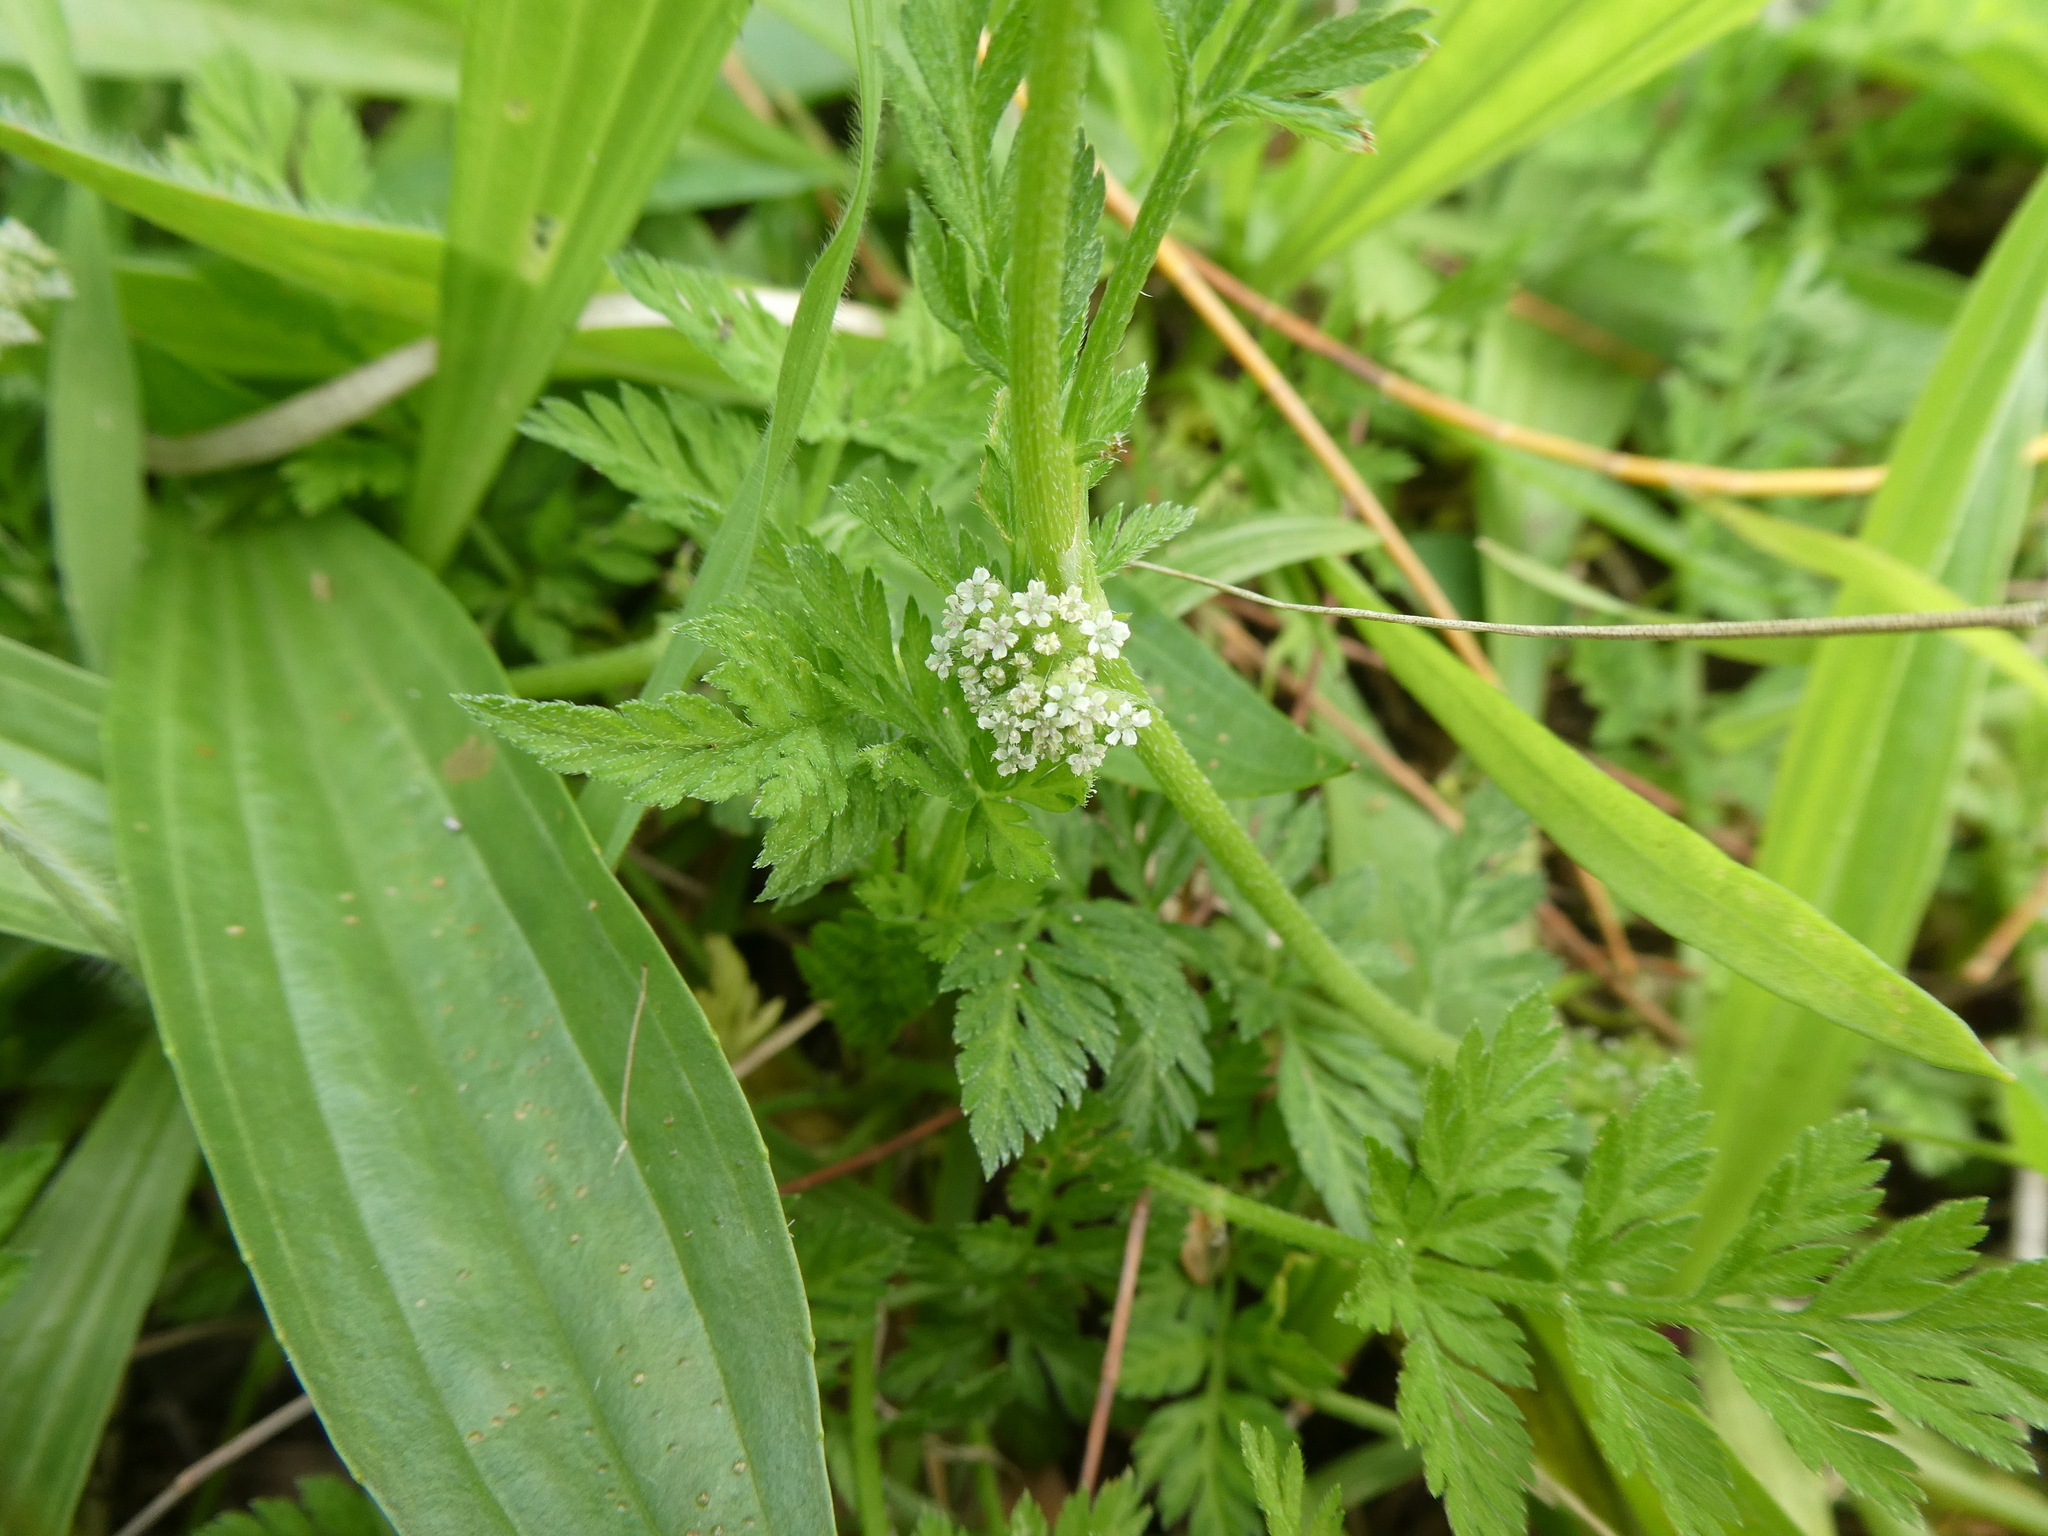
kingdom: Plantae
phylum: Tracheophyta
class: Magnoliopsida
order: Apiales
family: Apiaceae
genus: Torilis
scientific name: Torilis nodosa
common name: Knotted hedge-parsley
